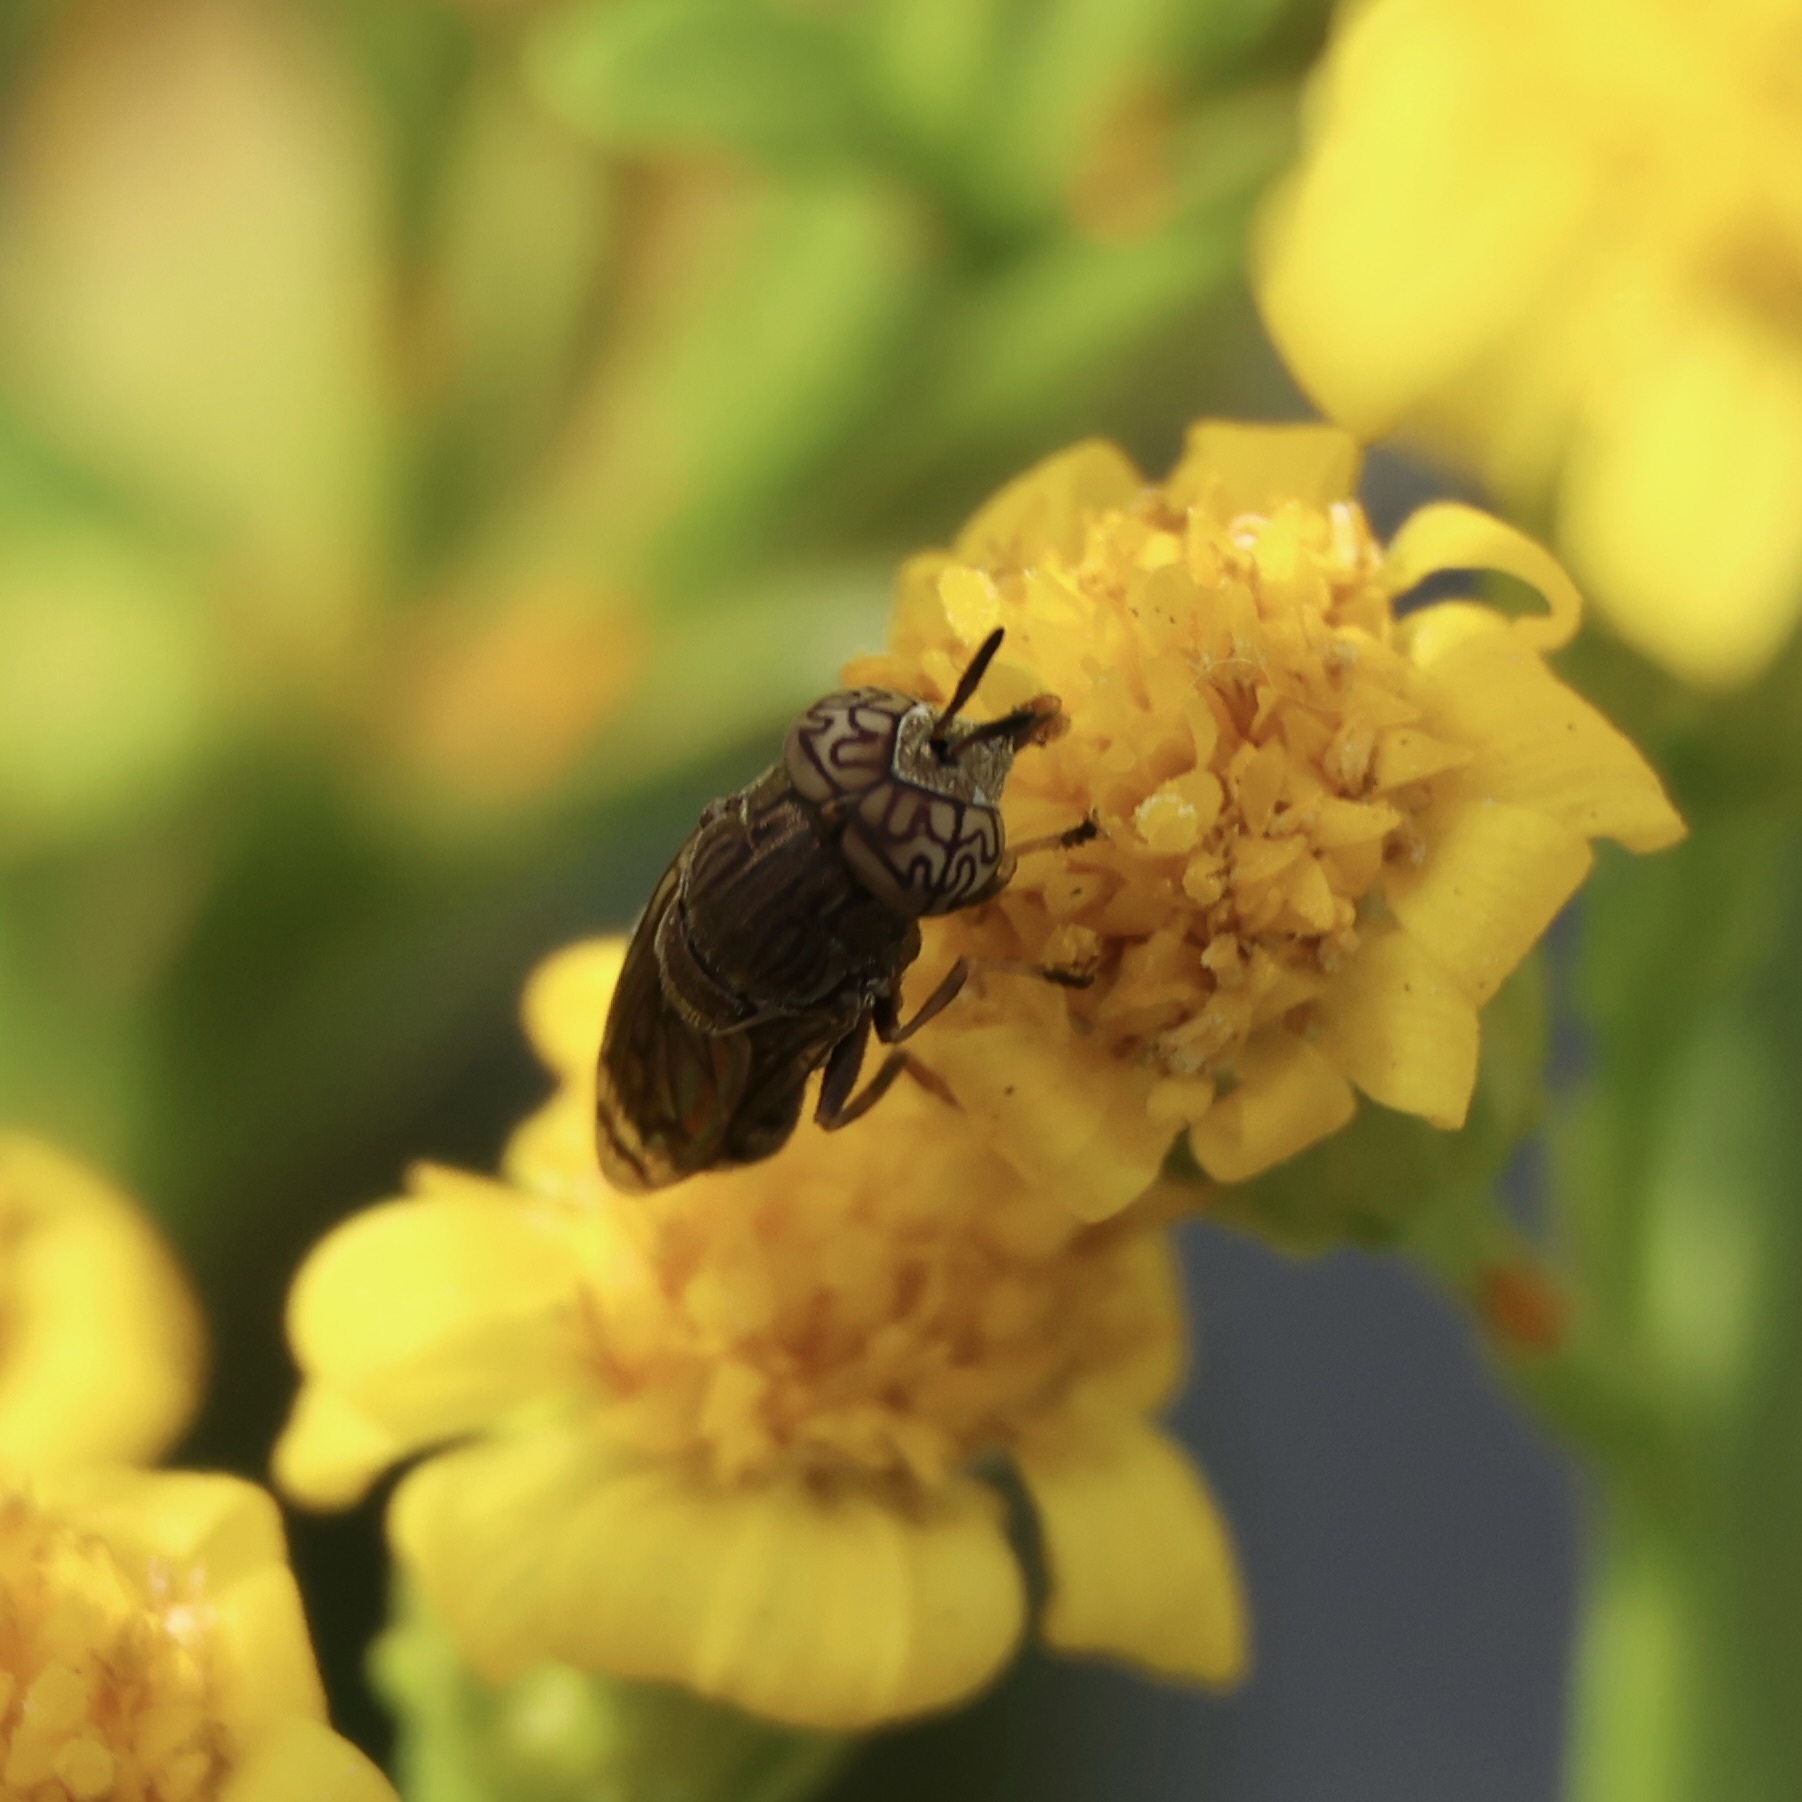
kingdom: Animalia
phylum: Arthropoda
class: Insecta
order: Diptera
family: Syrphidae
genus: Orthonevra
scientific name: Orthonevra nitida
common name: Wavy mucksucker
